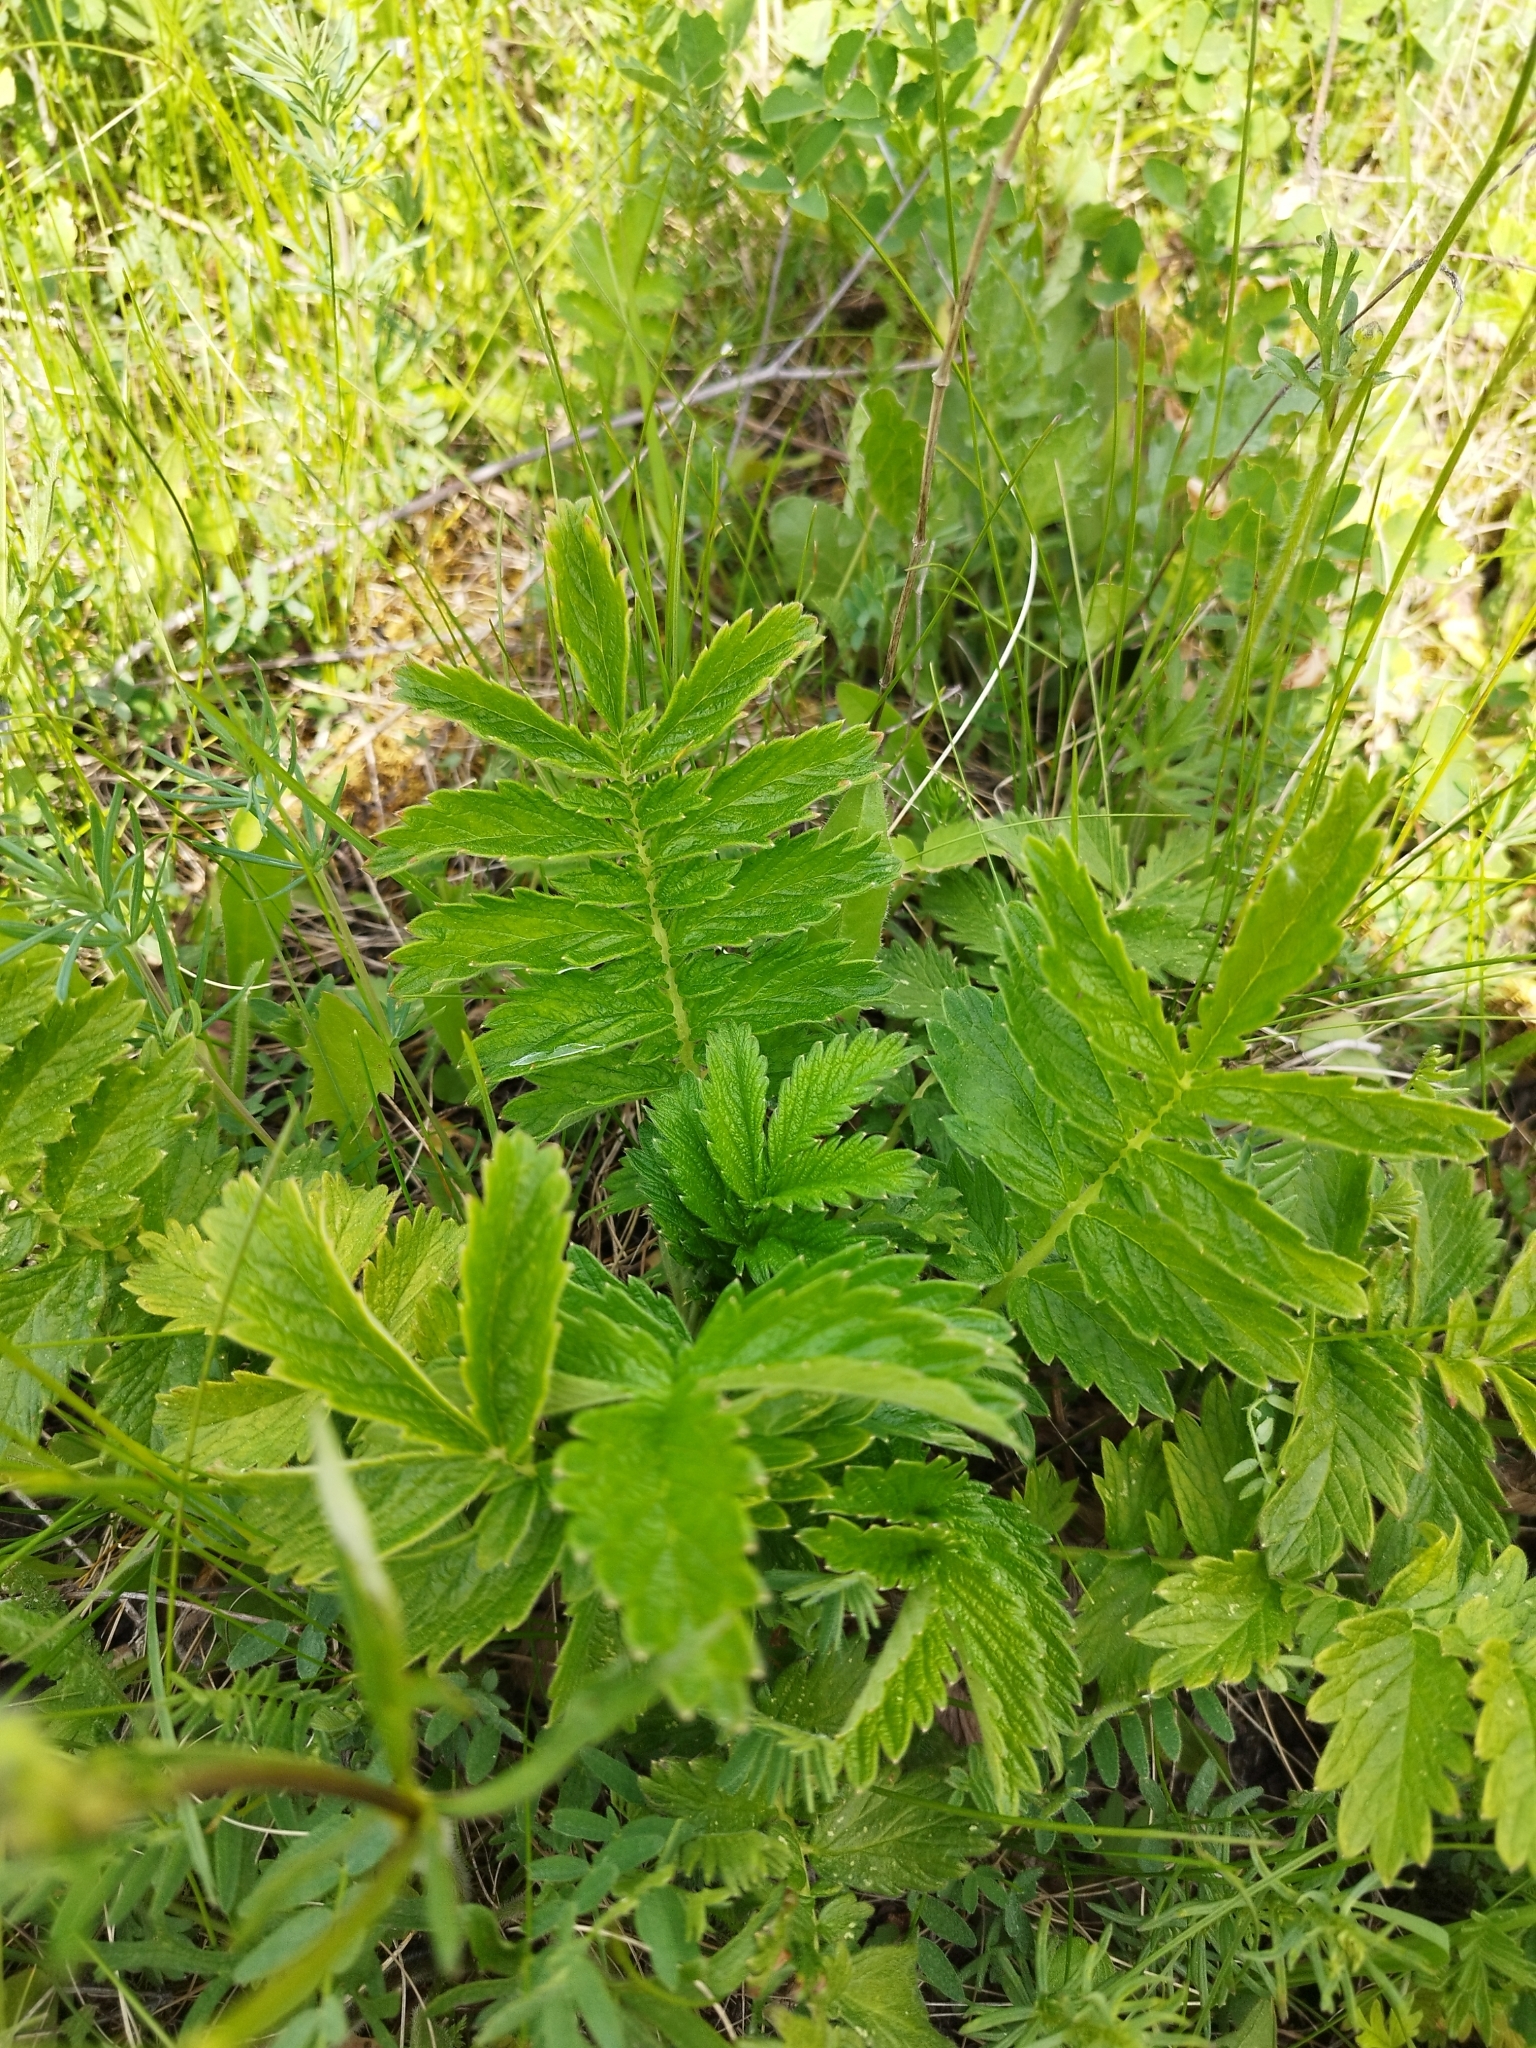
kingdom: Plantae
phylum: Tracheophyta
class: Magnoliopsida
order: Rosales
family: Rosaceae
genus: Agrimonia
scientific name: Agrimonia eupatoria
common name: Agrimony
